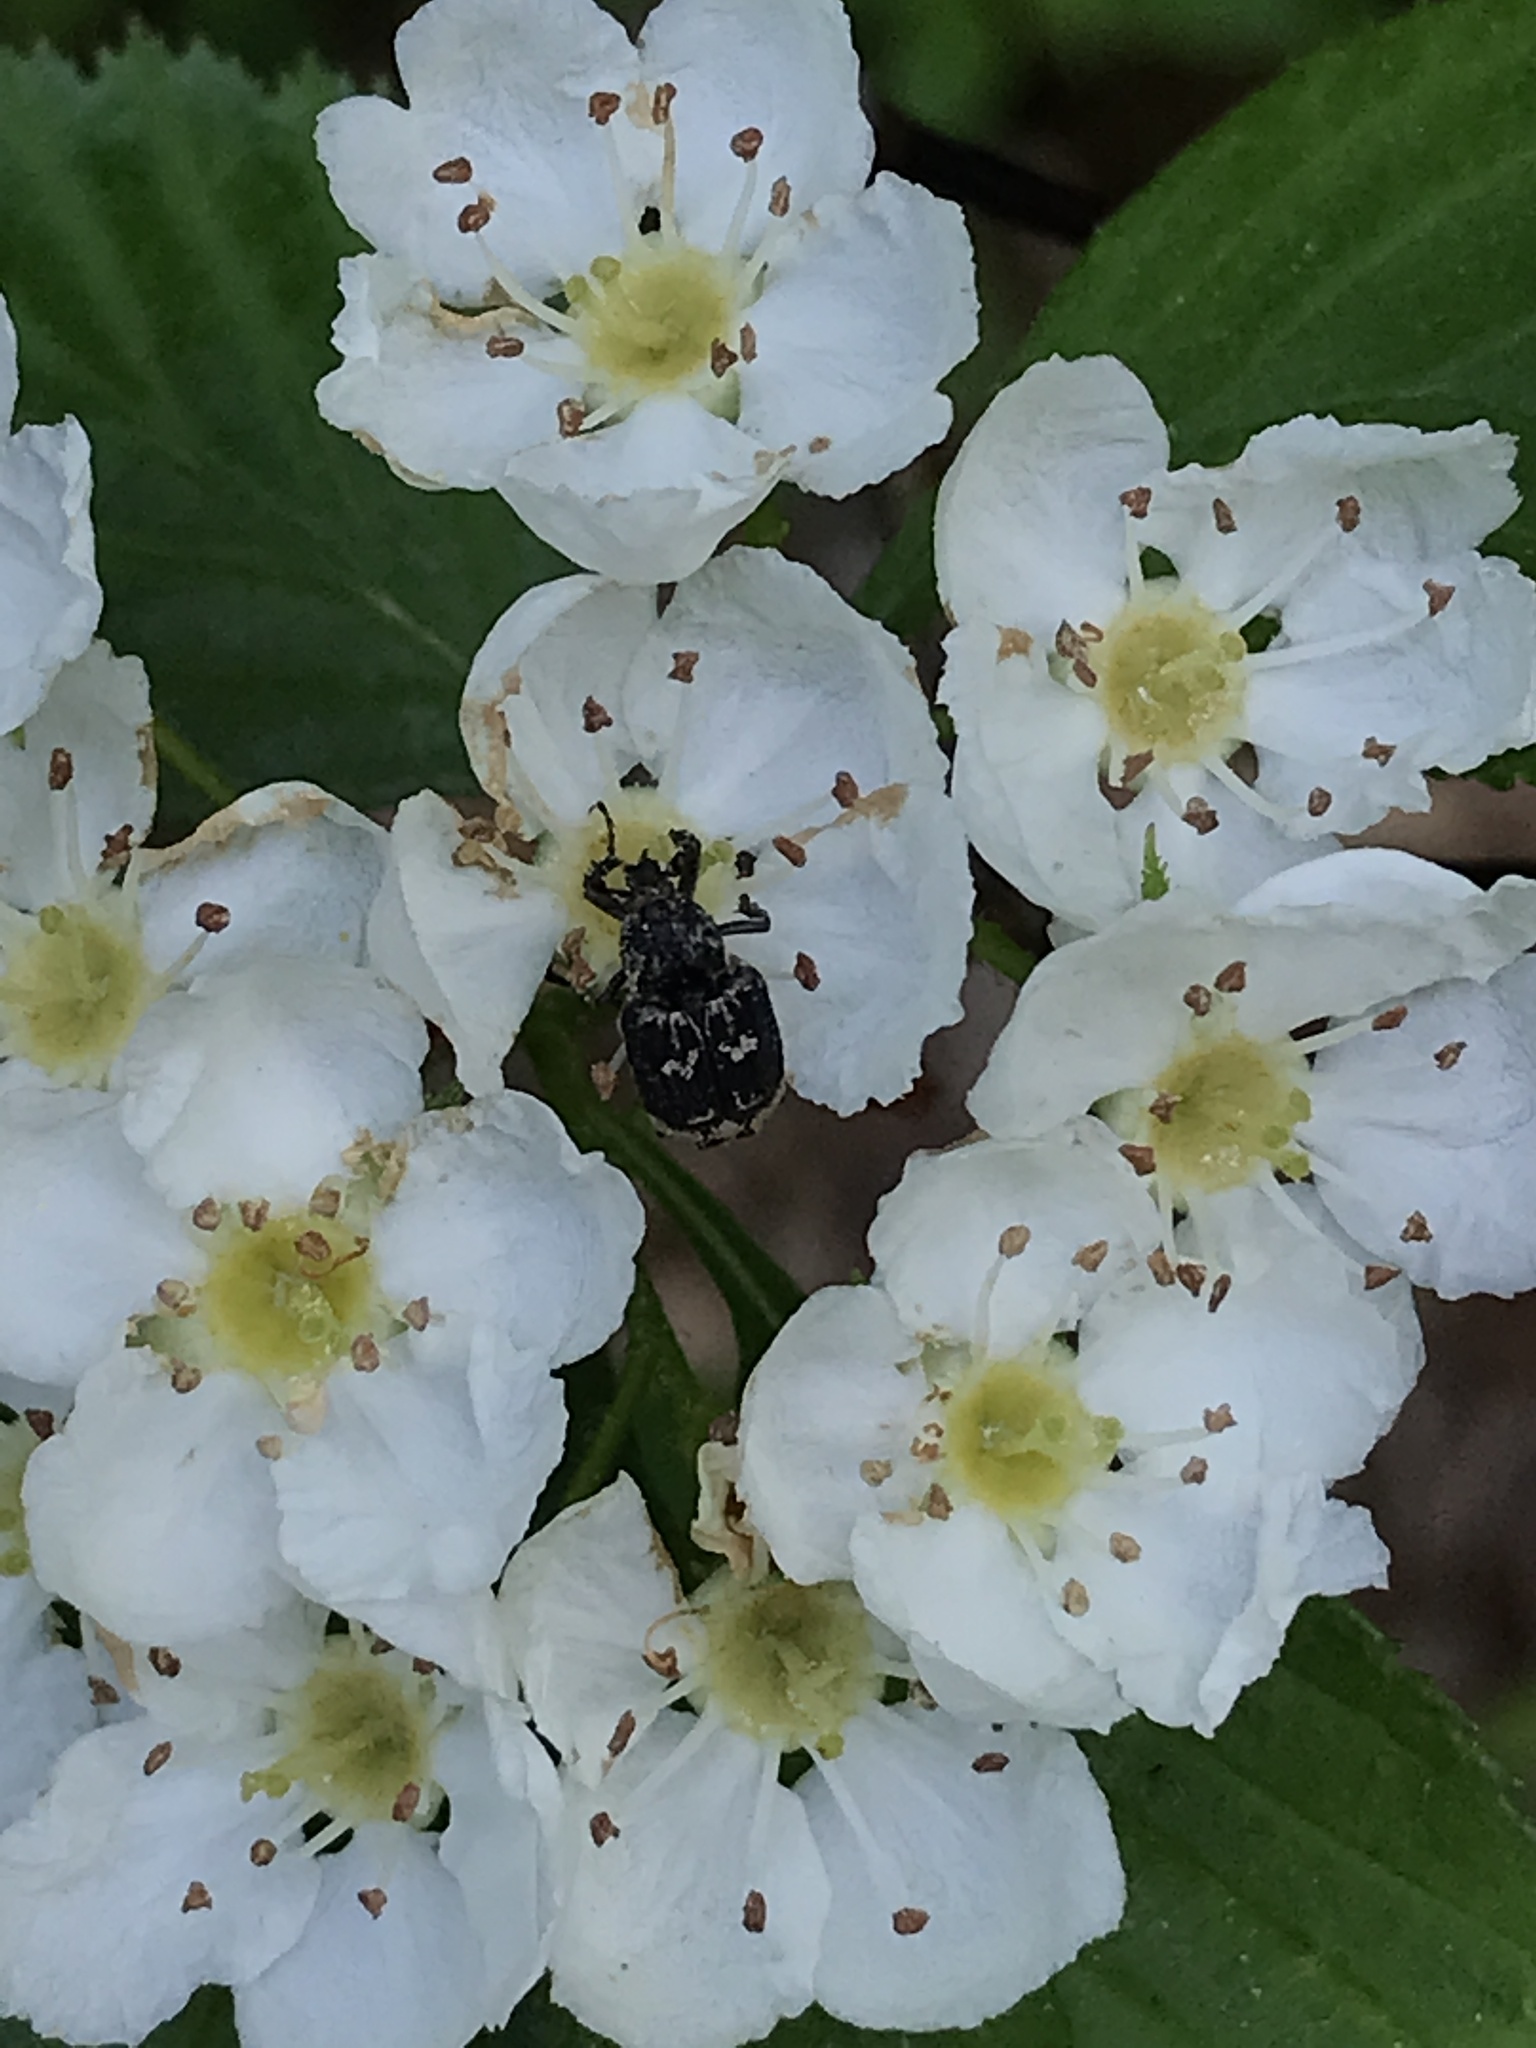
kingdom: Animalia
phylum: Arthropoda
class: Insecta
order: Coleoptera
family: Scarabaeidae
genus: Valgus
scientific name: Valgus hemipterus
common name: Bug flower chafer
